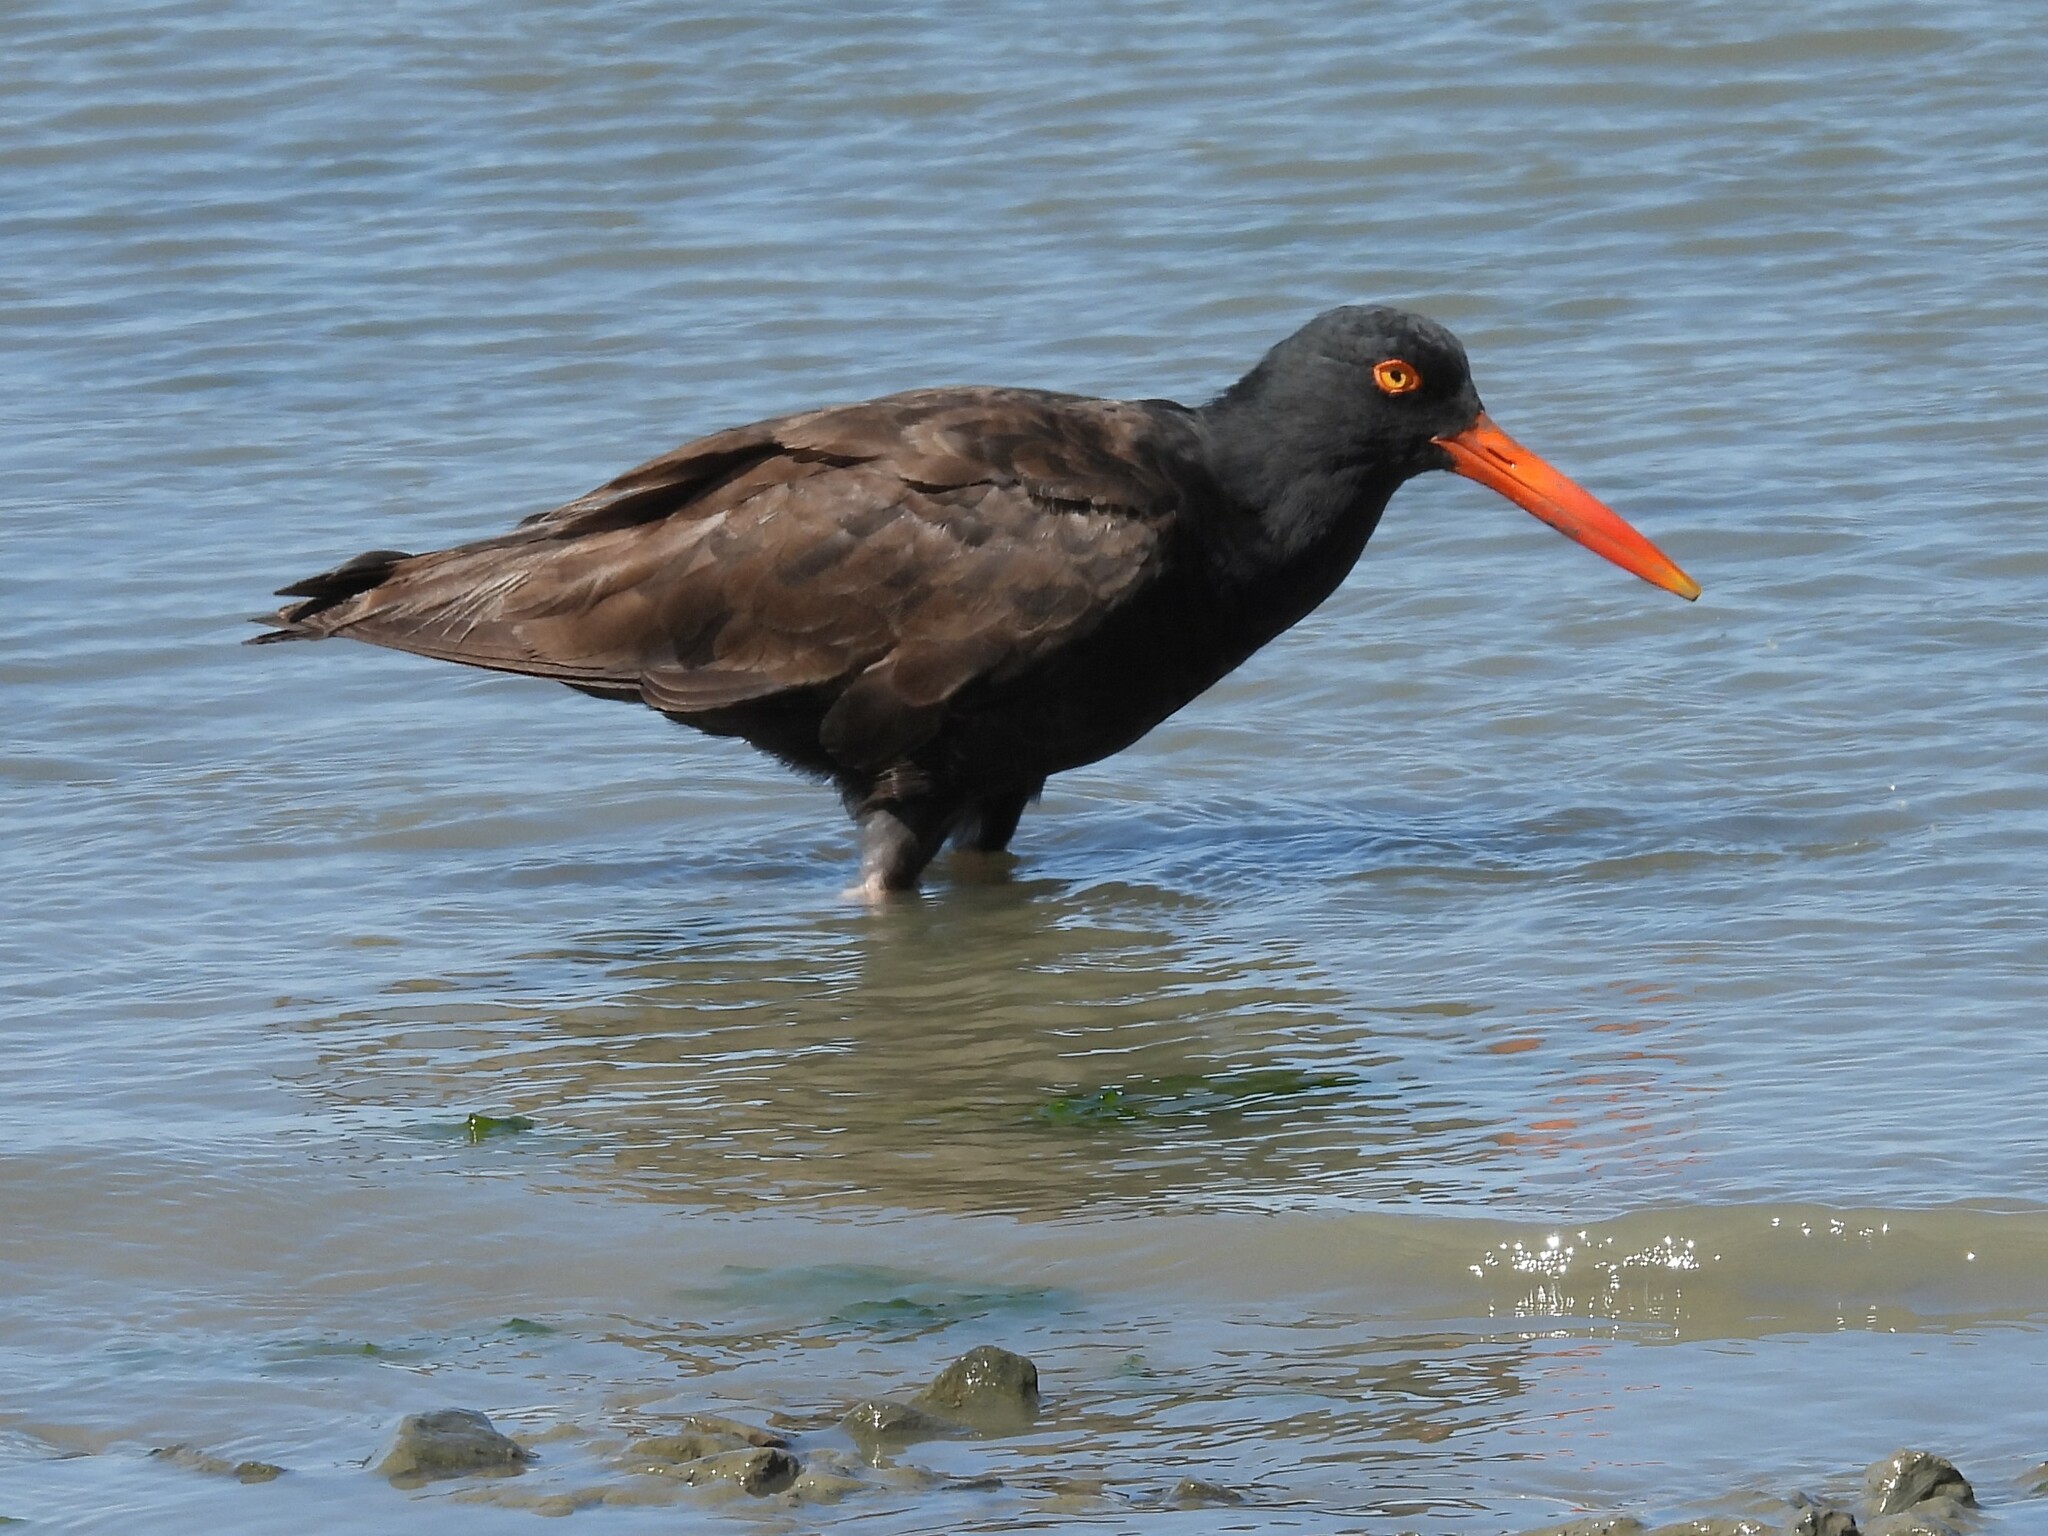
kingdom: Animalia
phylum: Chordata
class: Aves
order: Charadriiformes
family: Haematopodidae
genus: Haematopus
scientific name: Haematopus bachmani
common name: Black oystercatcher
